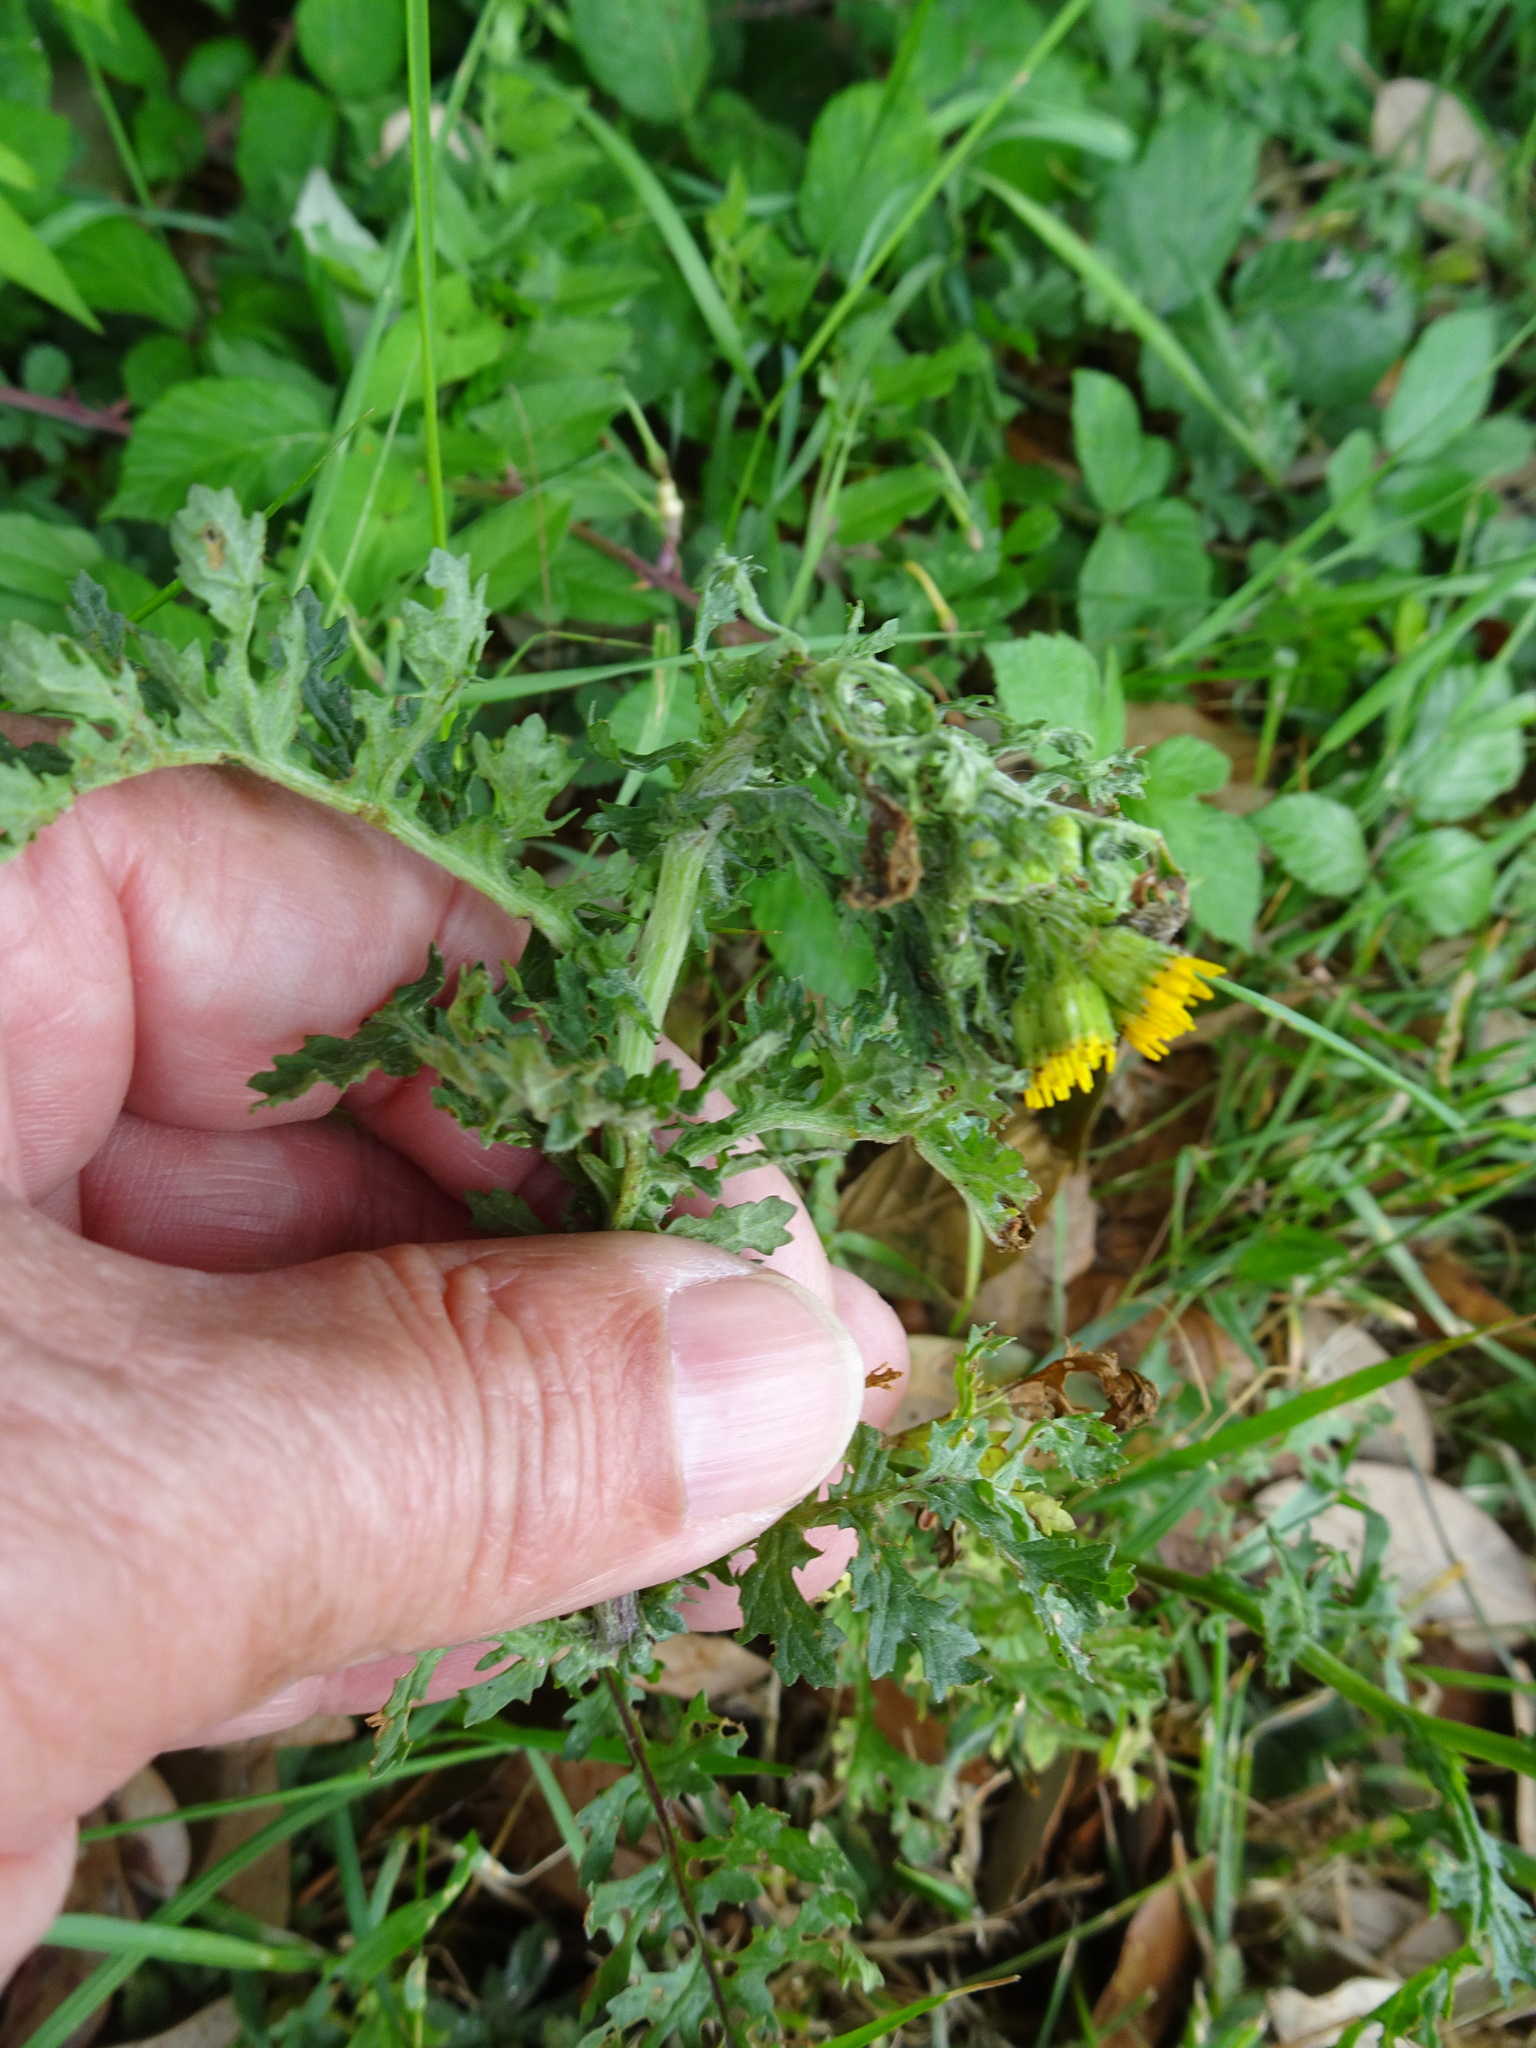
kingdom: Plantae
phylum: Tracheophyta
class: Magnoliopsida
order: Asterales
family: Asteraceae
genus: Jacobaea
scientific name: Jacobaea vulgaris
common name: Stinking willie
